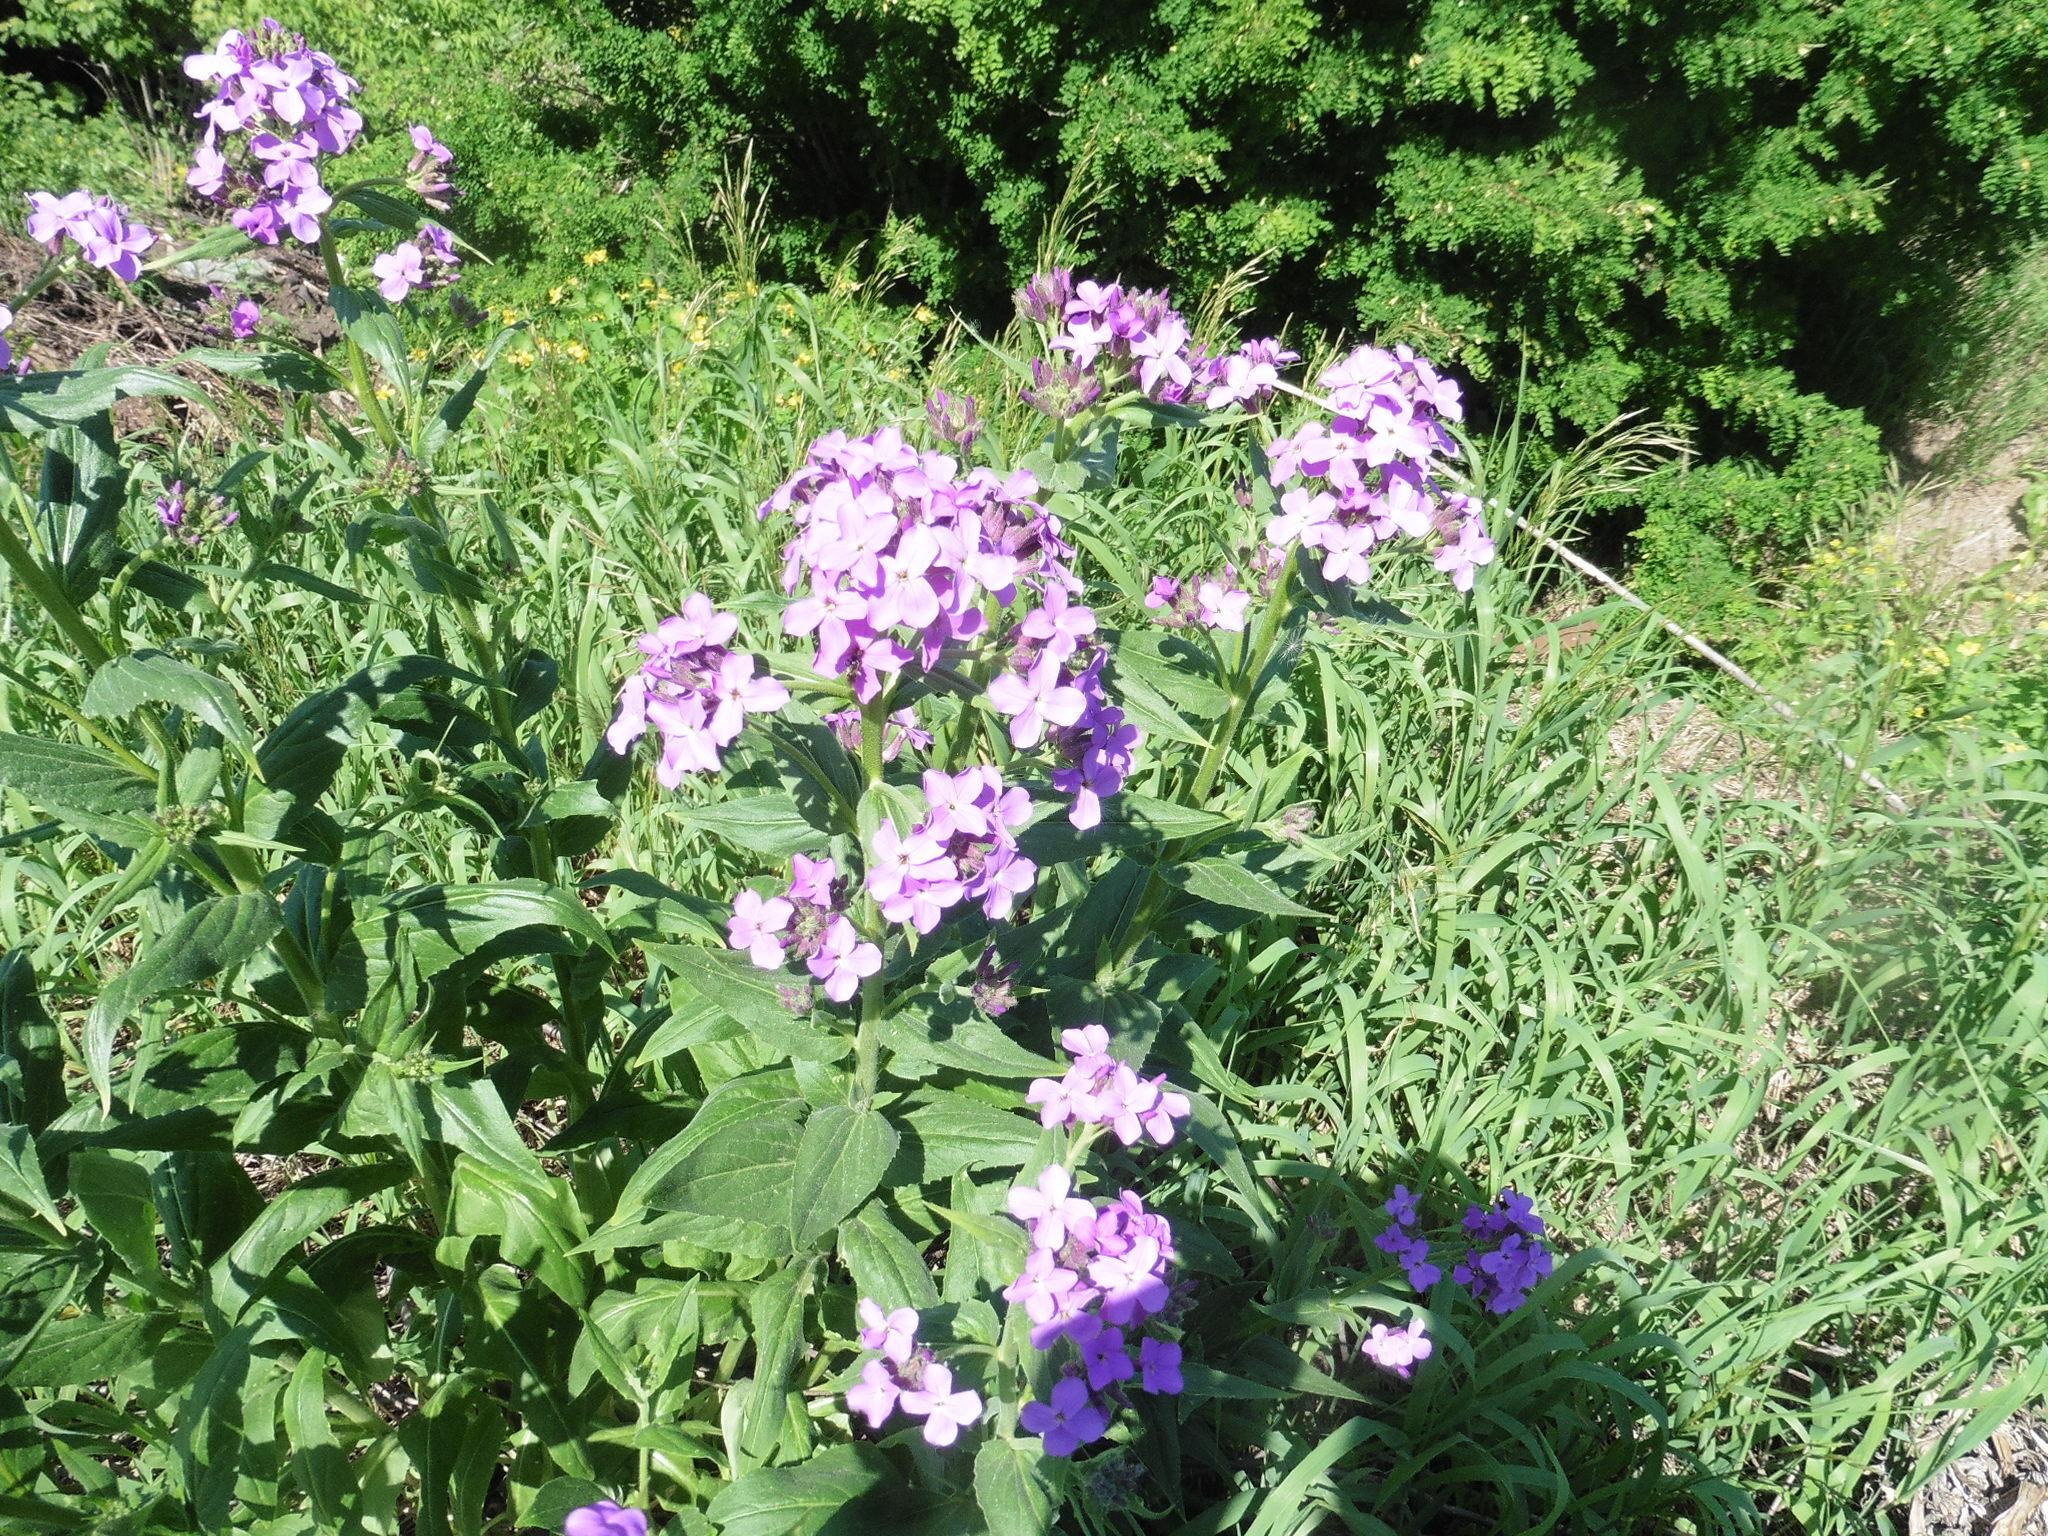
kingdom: Plantae
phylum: Tracheophyta
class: Magnoliopsida
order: Brassicales
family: Brassicaceae
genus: Hesperis
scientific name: Hesperis matronalis
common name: Dame's-violet
